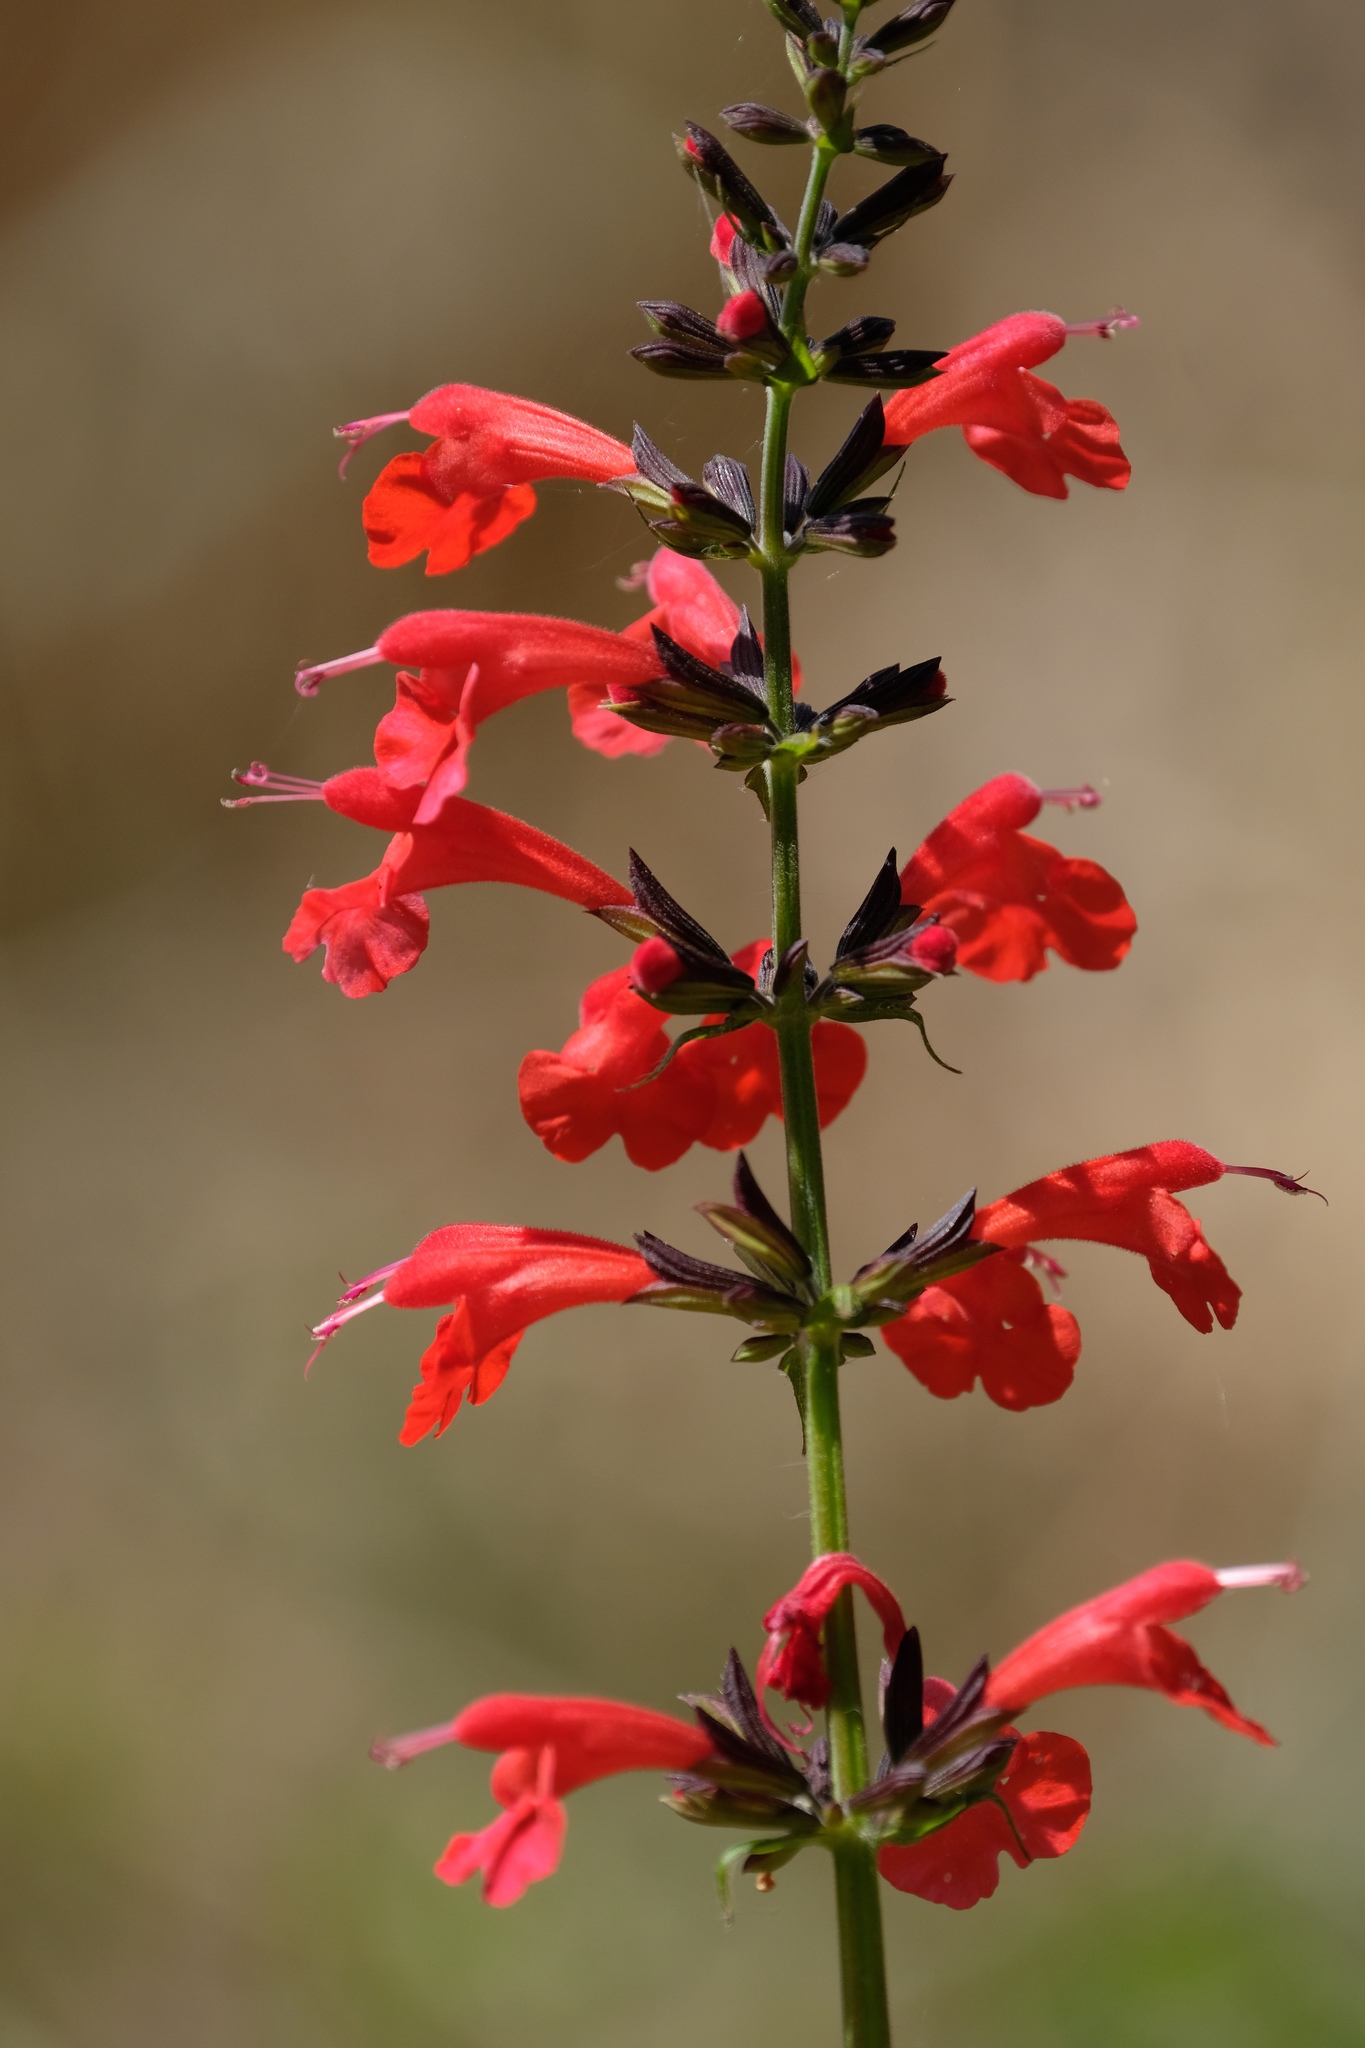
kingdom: Plantae
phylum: Tracheophyta
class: Magnoliopsida
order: Lamiales
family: Lamiaceae
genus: Salvia
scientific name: Salvia coccinea
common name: Blood sage
